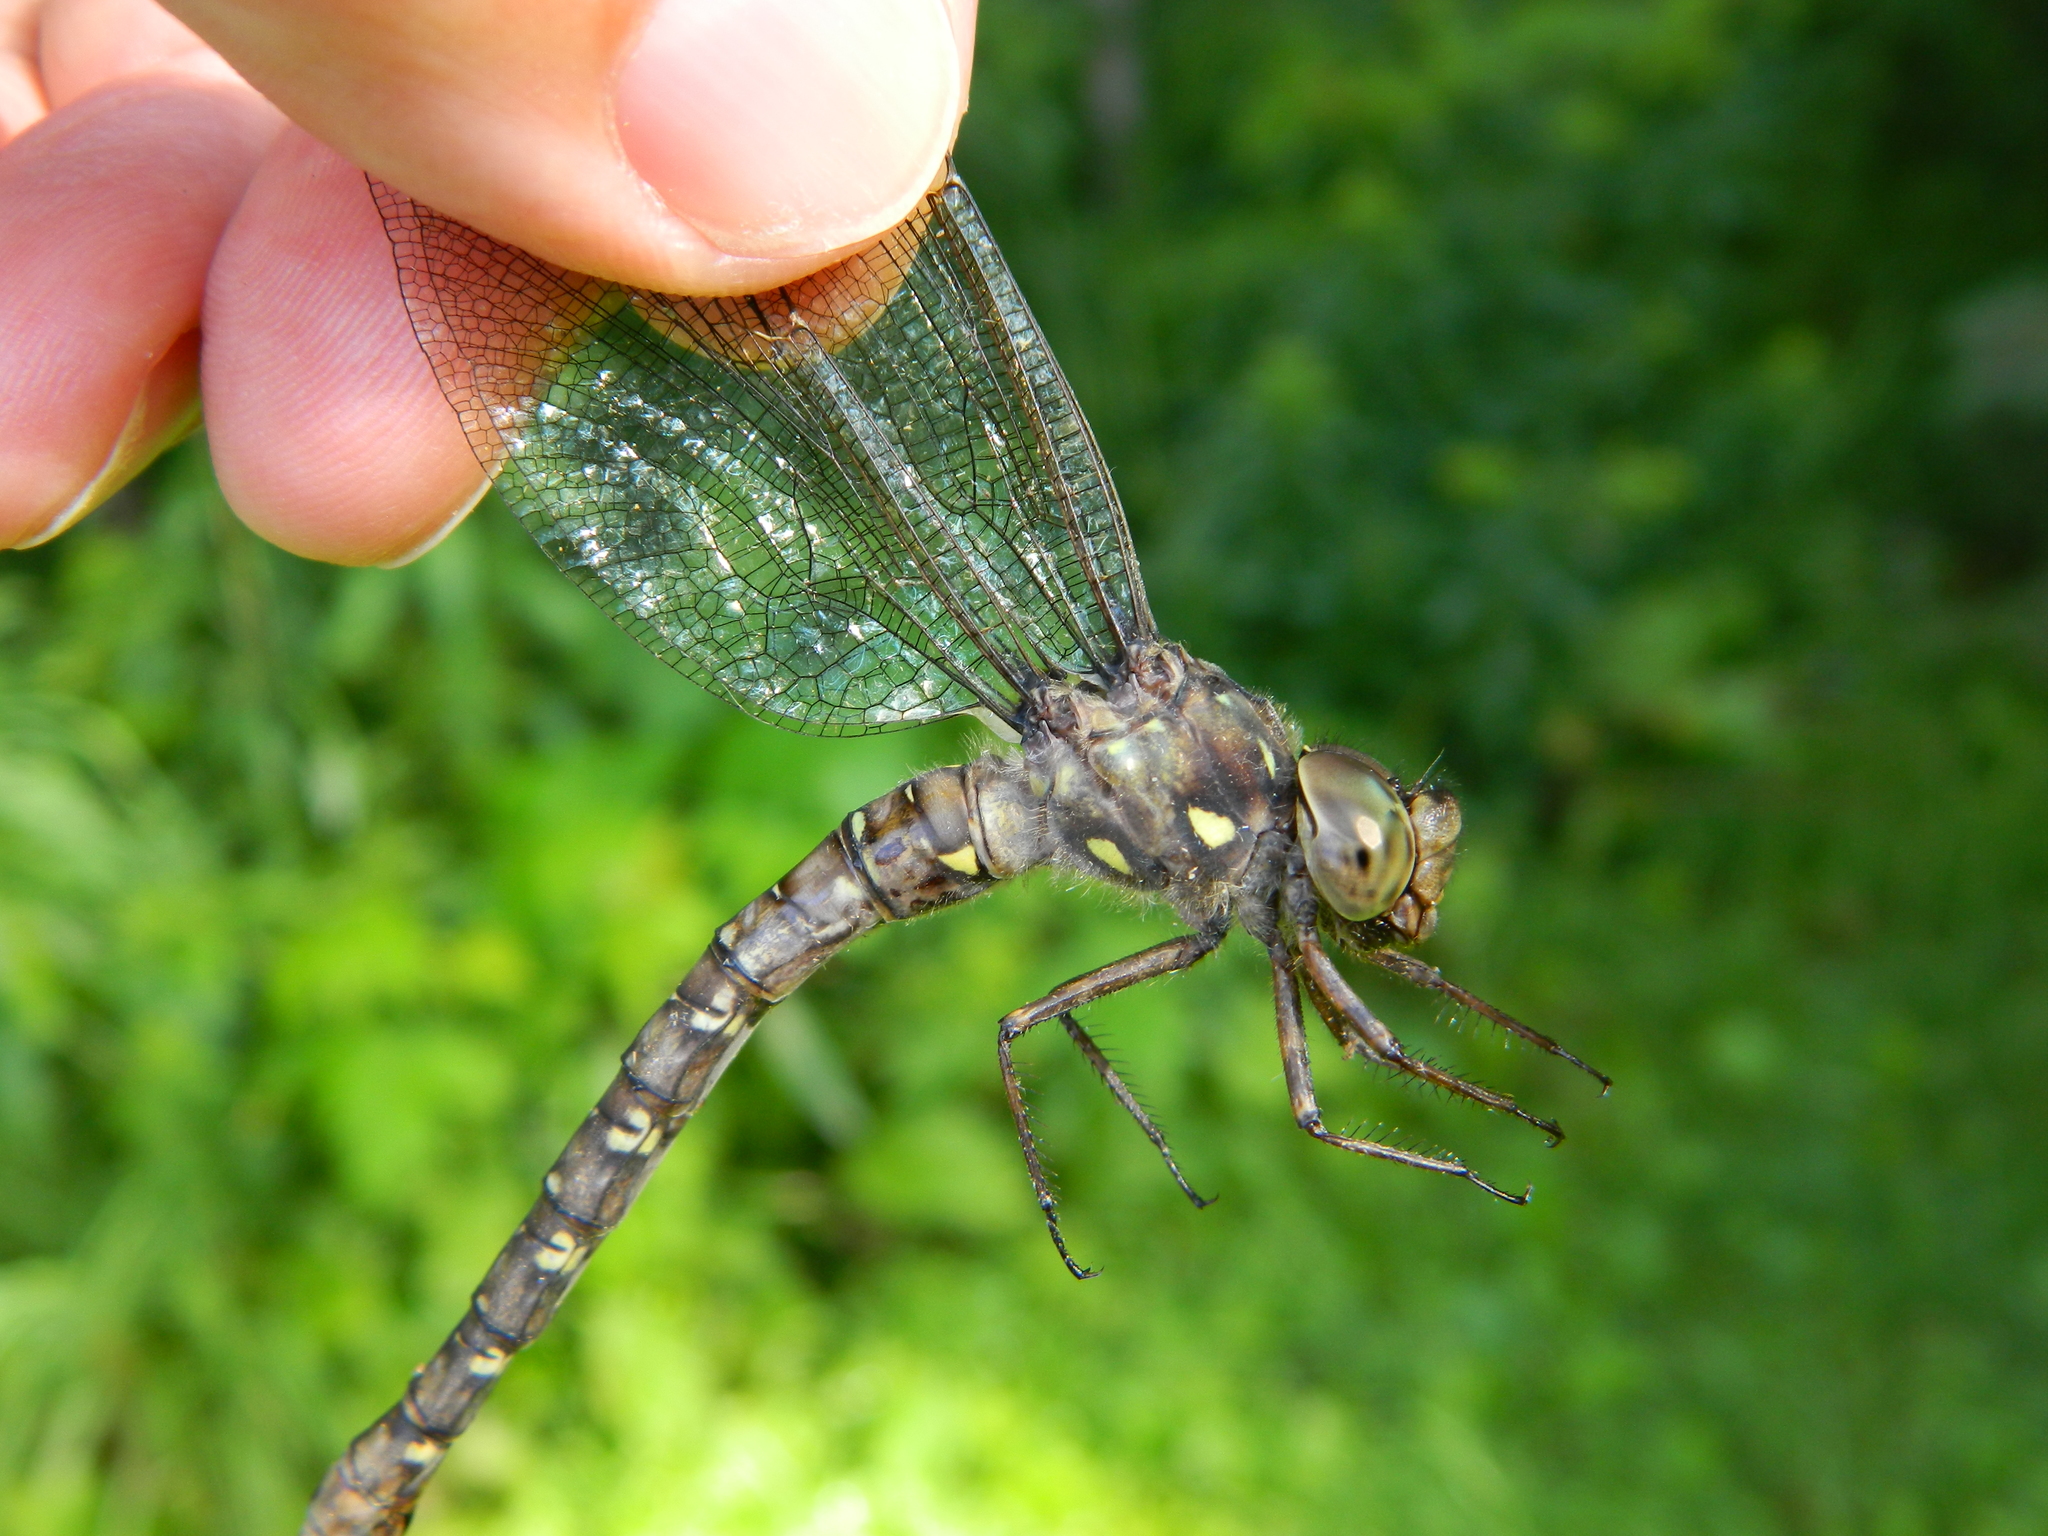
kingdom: Animalia
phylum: Arthropoda
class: Insecta
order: Odonata
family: Aeshnidae
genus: Boyeria
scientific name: Boyeria grafiana
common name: Ocellated darner
